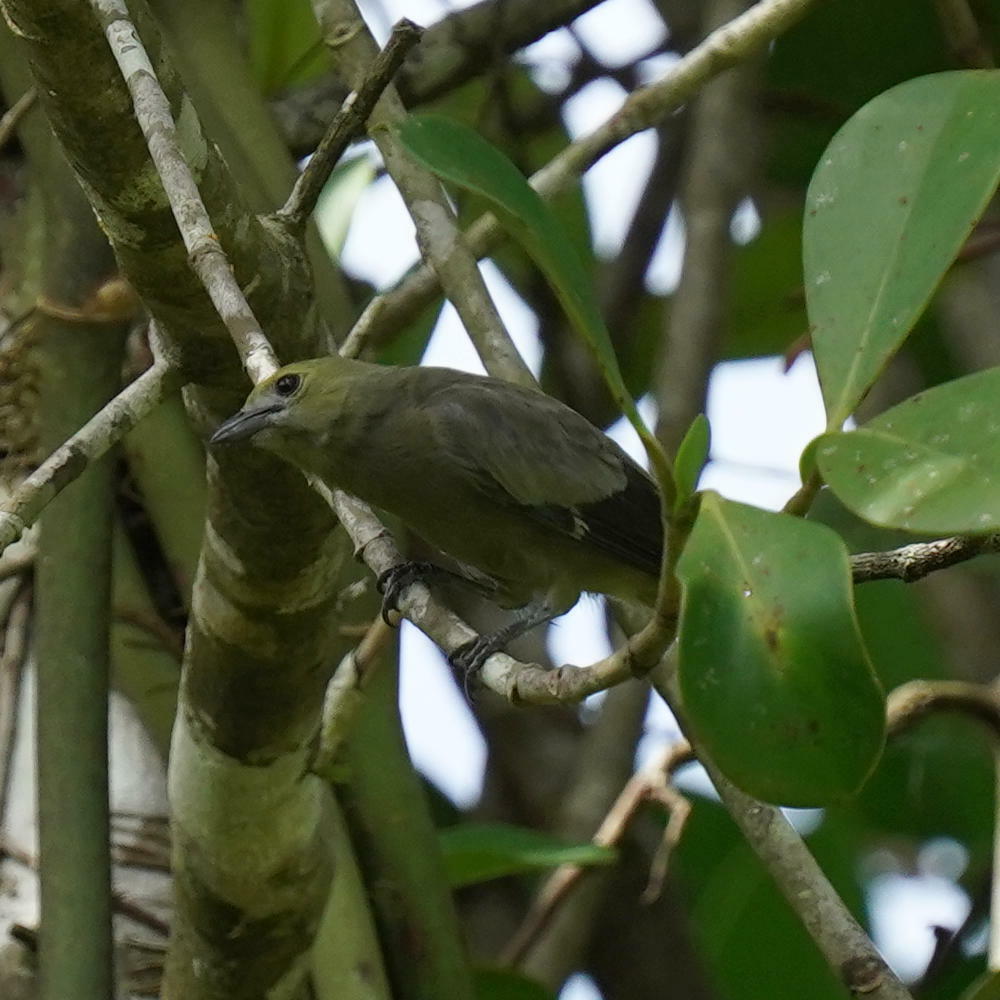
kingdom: Animalia
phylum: Chordata
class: Aves
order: Passeriformes
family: Thraupidae
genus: Thraupis
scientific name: Thraupis palmarum
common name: Palm tanager
